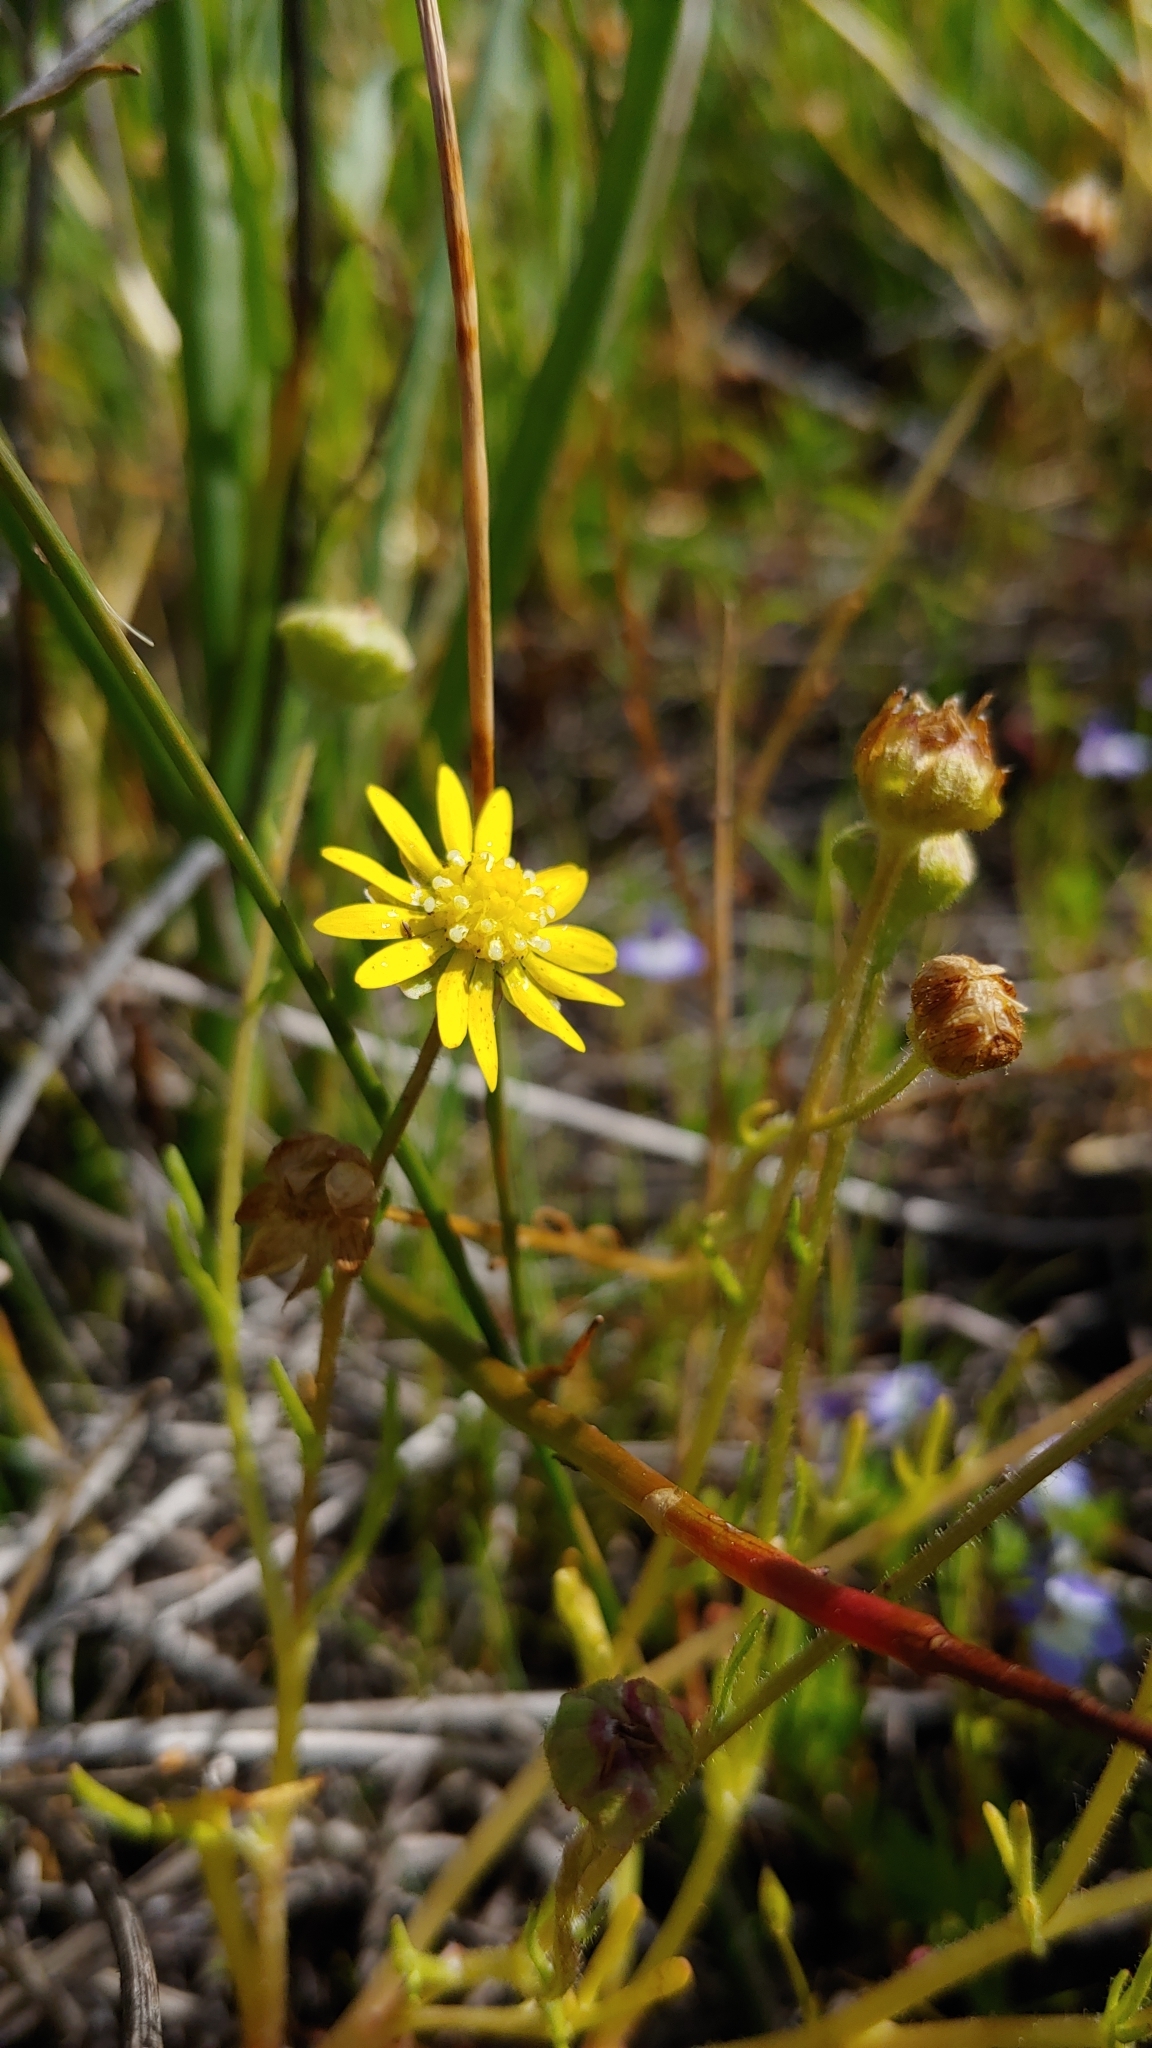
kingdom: Plantae
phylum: Tracheophyta
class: Magnoliopsida
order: Asterales
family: Asteraceae
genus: Blennosperma
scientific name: Blennosperma bakeri
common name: Sonoma sunshine
